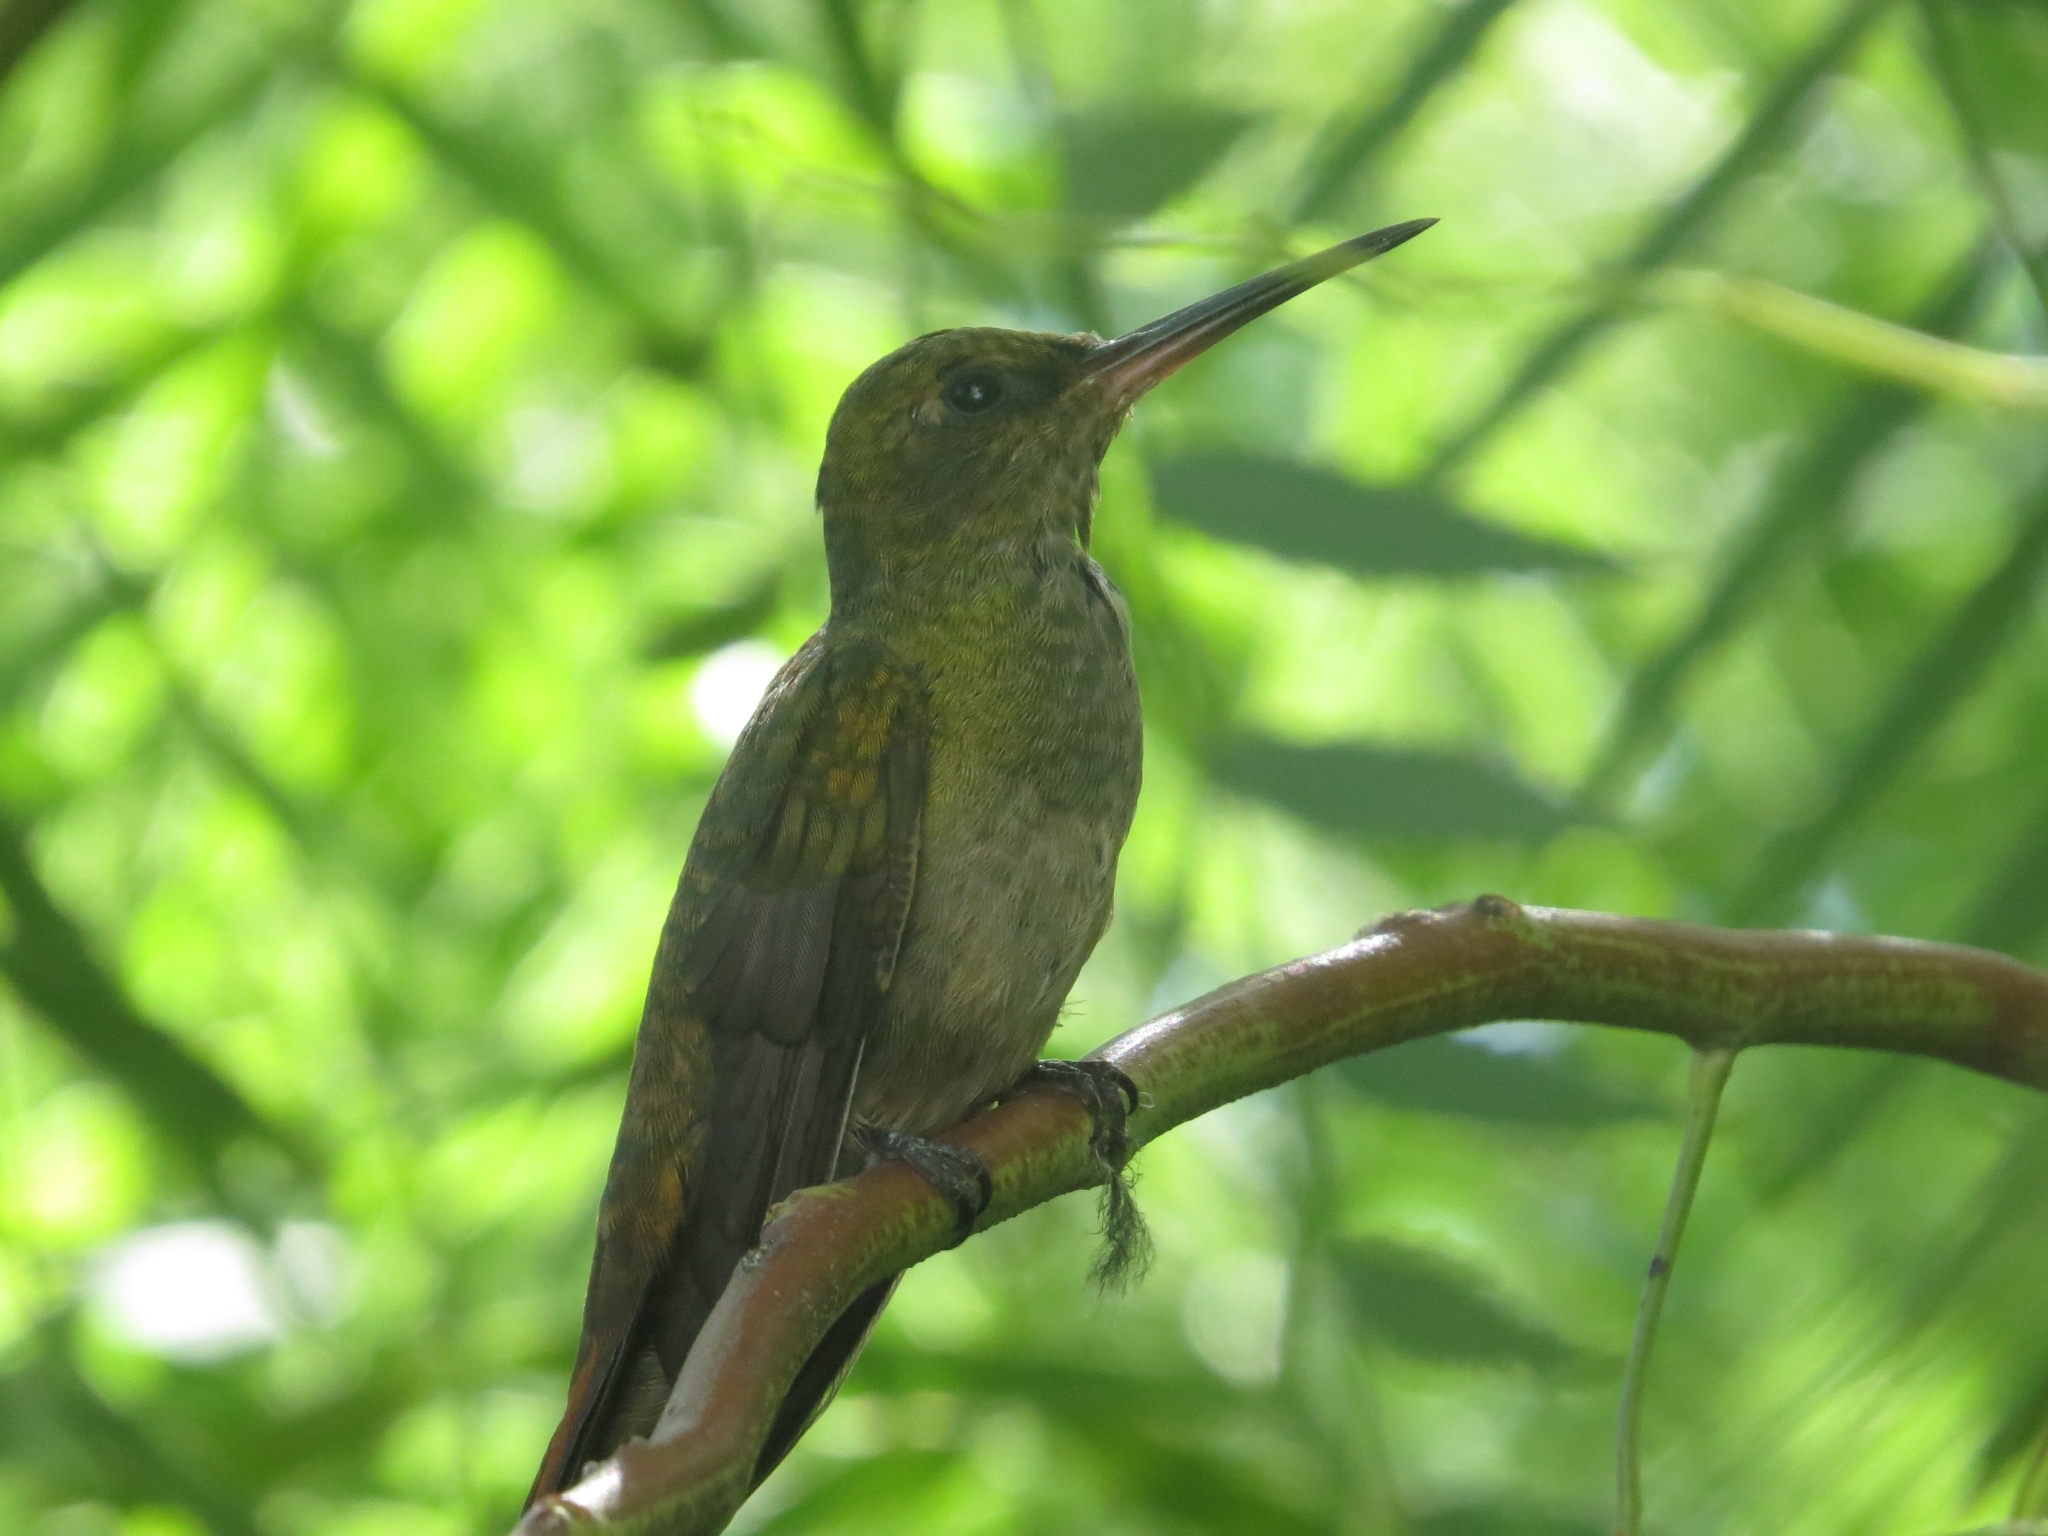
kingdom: Animalia
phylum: Chordata
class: Aves
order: Apodiformes
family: Trochilidae
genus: Hylocharis
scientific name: Hylocharis chrysura
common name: Gilded sapphire
